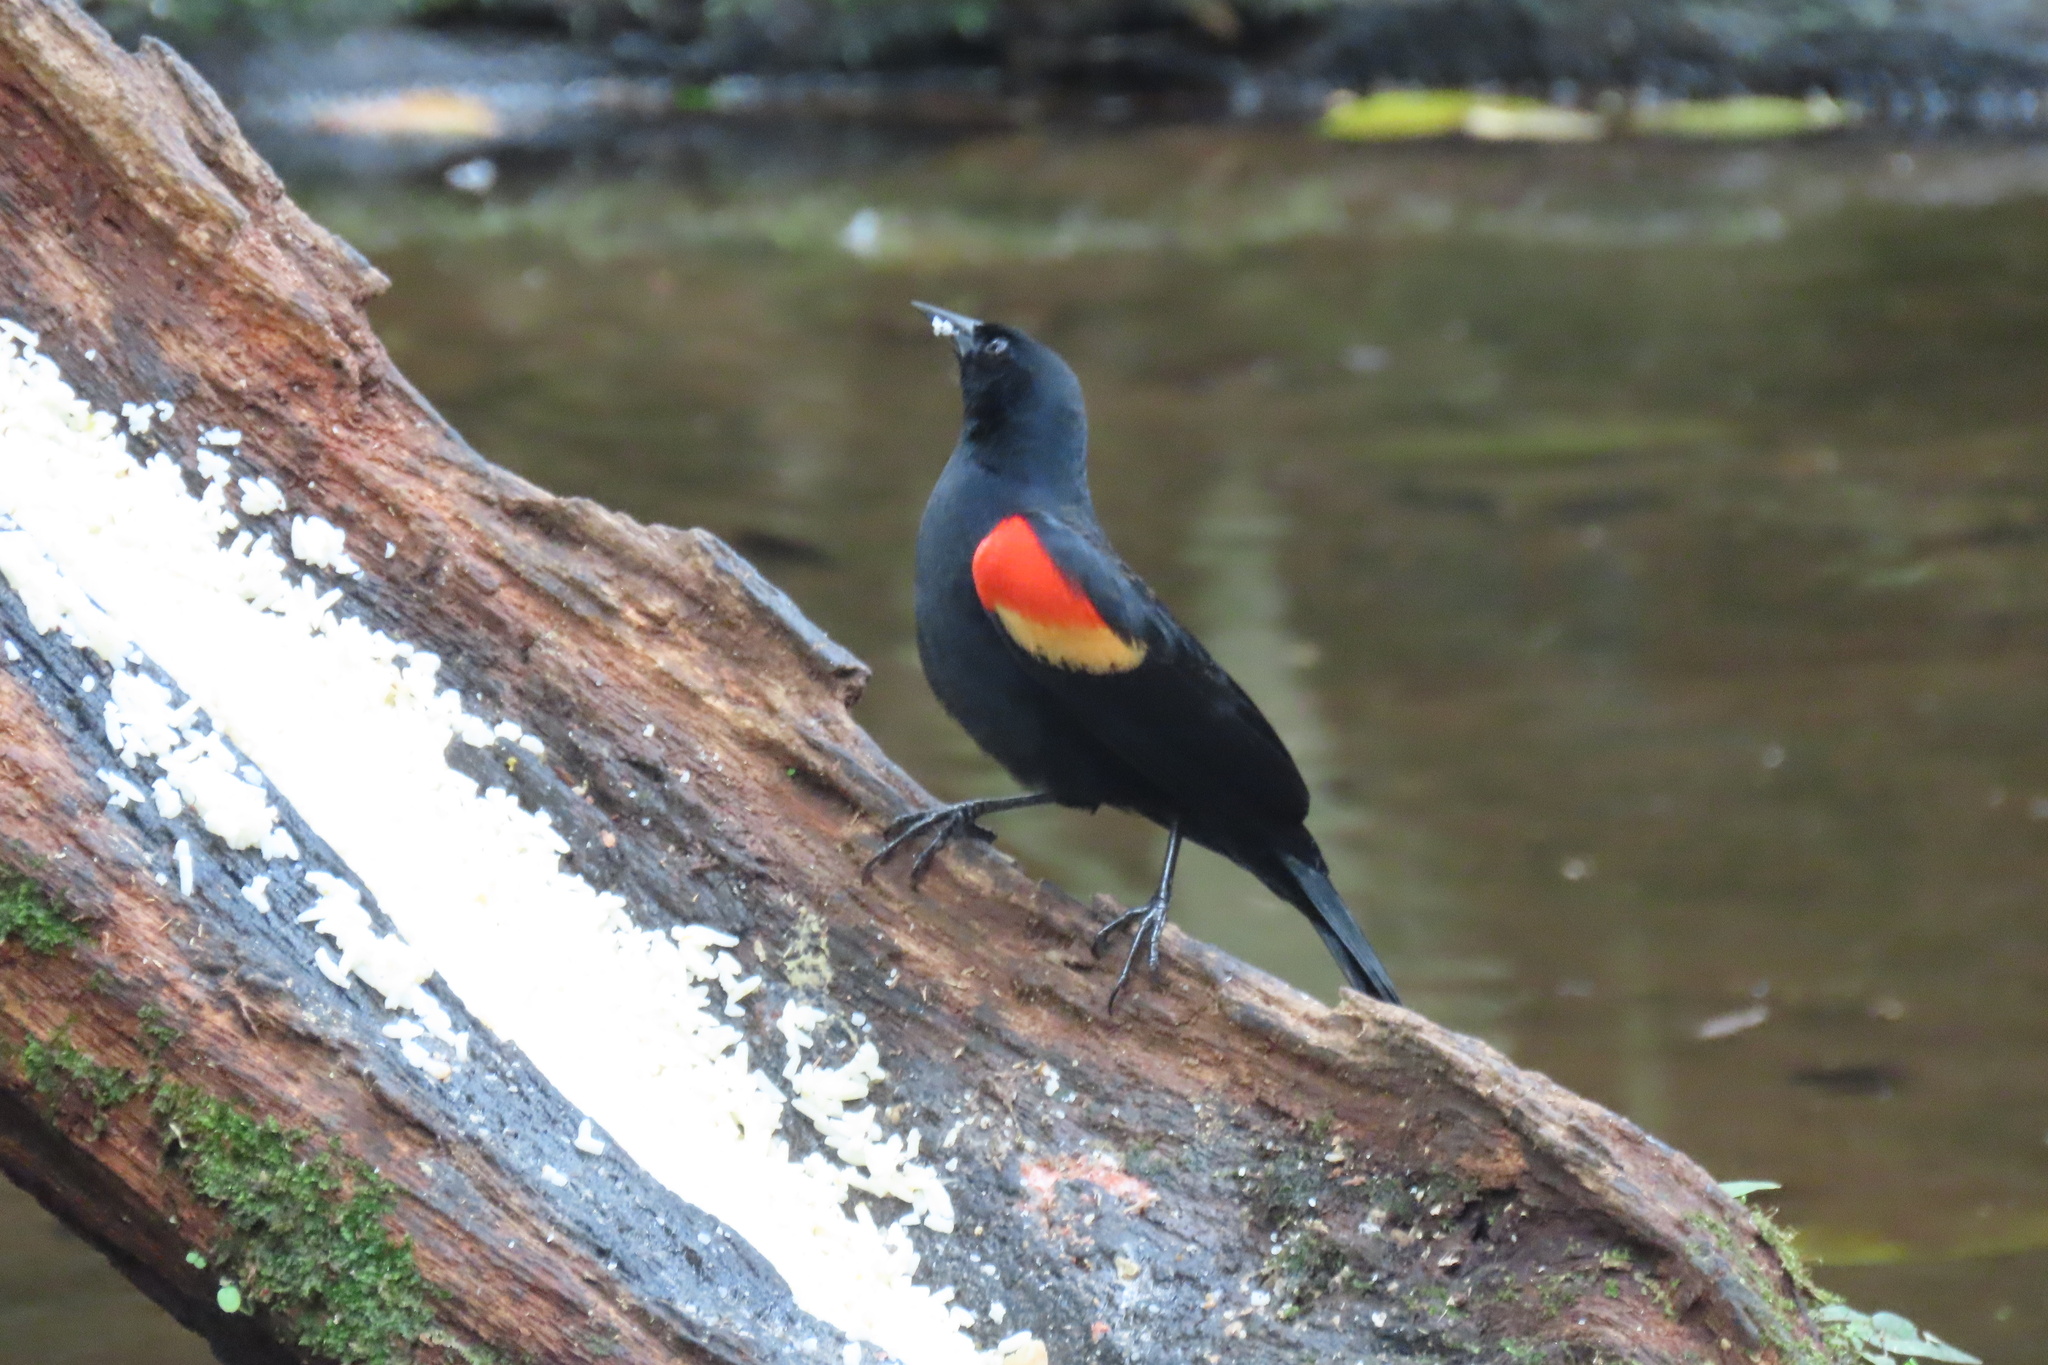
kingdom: Animalia
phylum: Chordata
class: Aves
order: Passeriformes
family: Icteridae
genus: Agelaius
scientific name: Agelaius phoeniceus
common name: Red-winged blackbird
